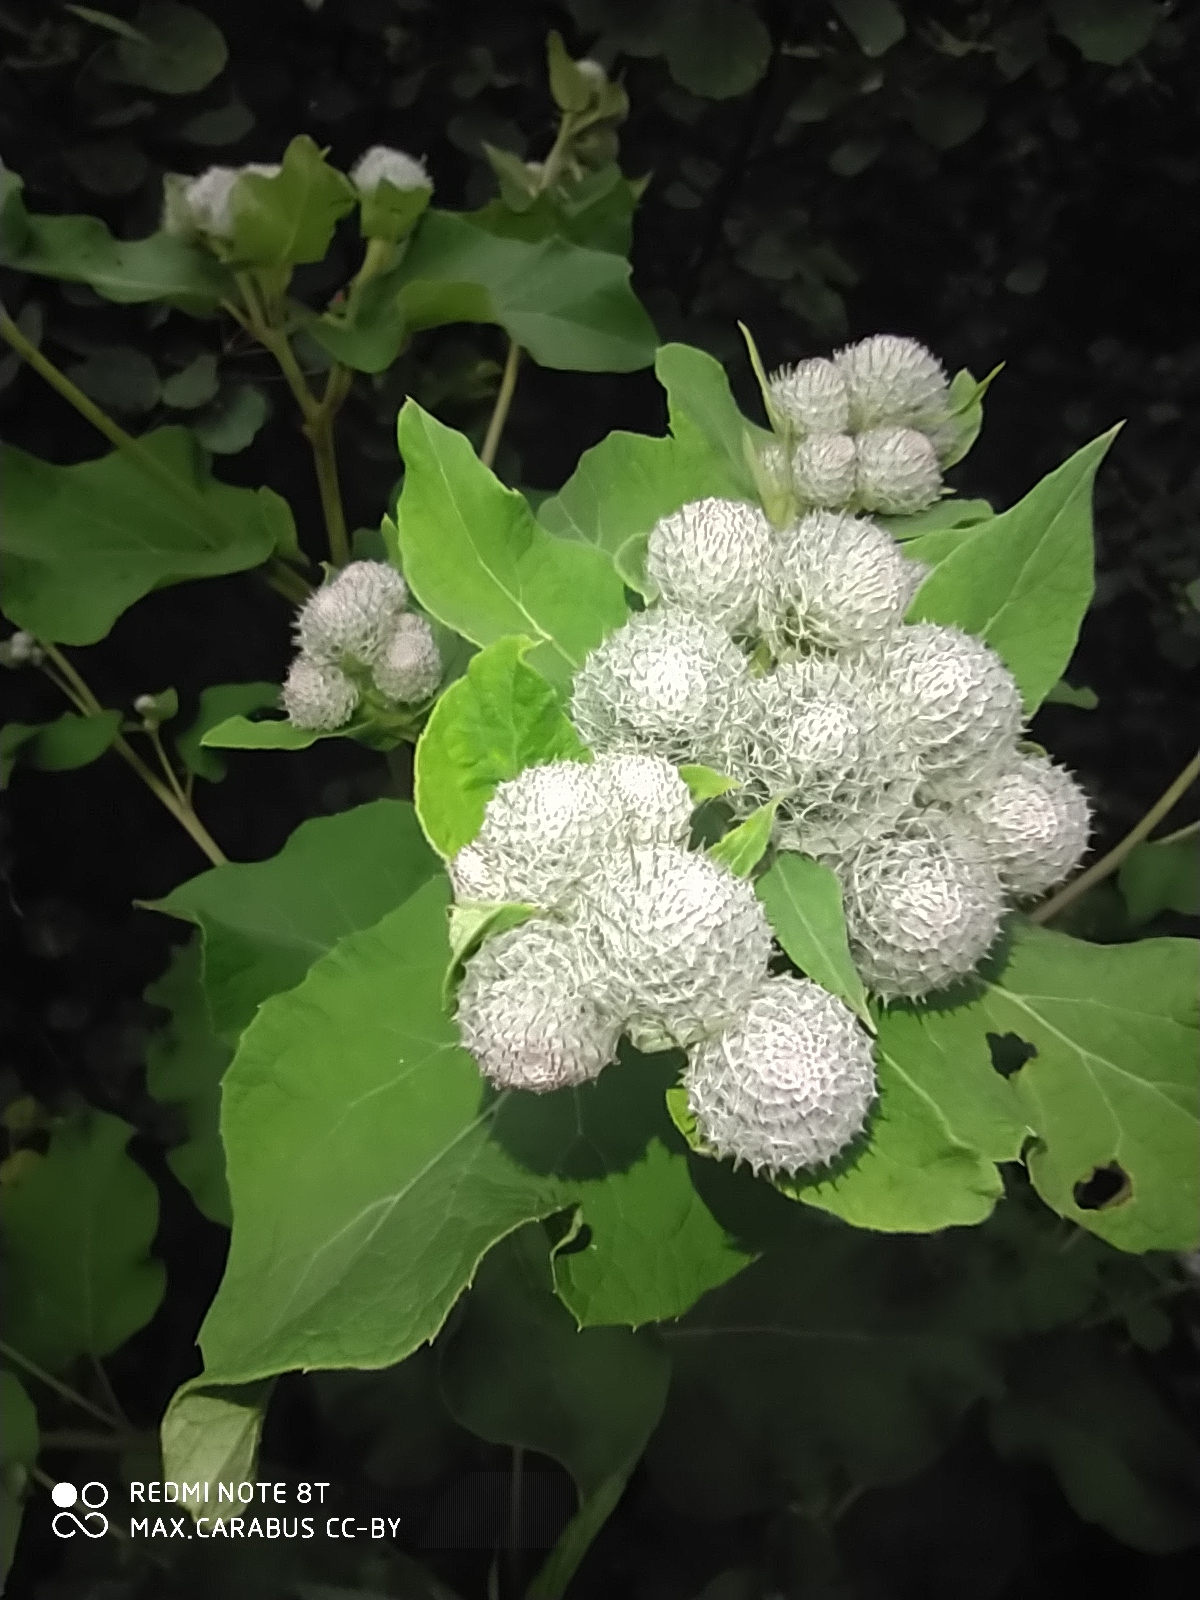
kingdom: Plantae
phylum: Tracheophyta
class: Magnoliopsida
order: Asterales
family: Asteraceae
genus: Arctium
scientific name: Arctium tomentosum
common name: Woolly burdock
